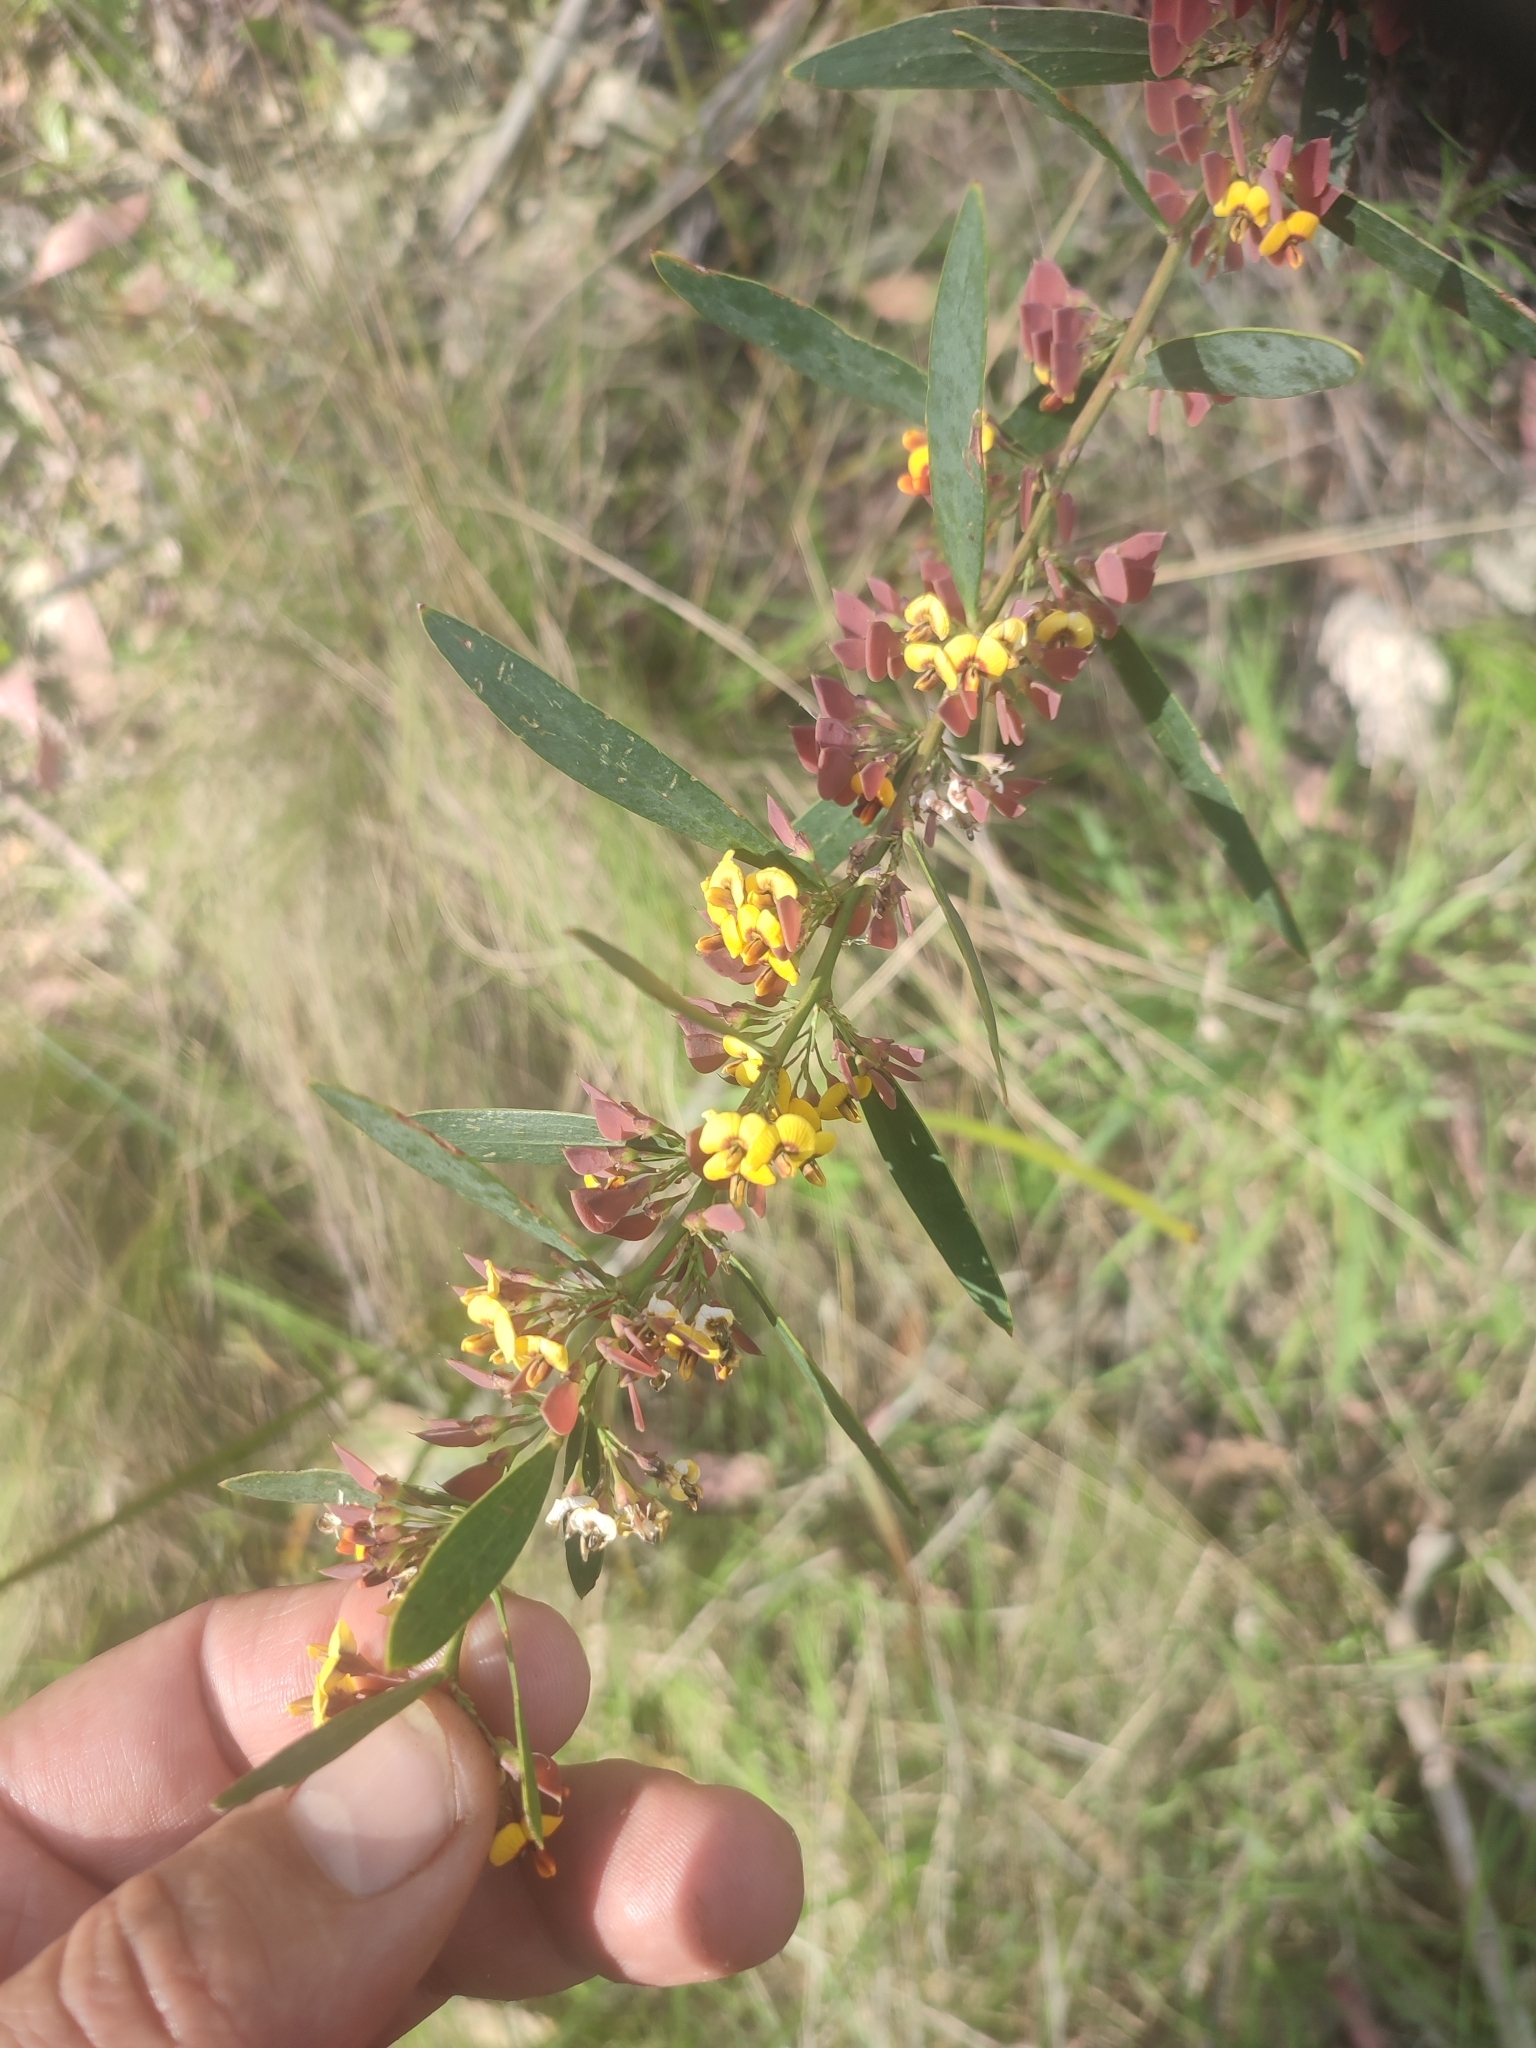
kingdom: Plantae
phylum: Tracheophyta
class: Magnoliopsida
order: Fabales
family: Fabaceae
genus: Daviesia
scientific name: Daviesia mimosoides
